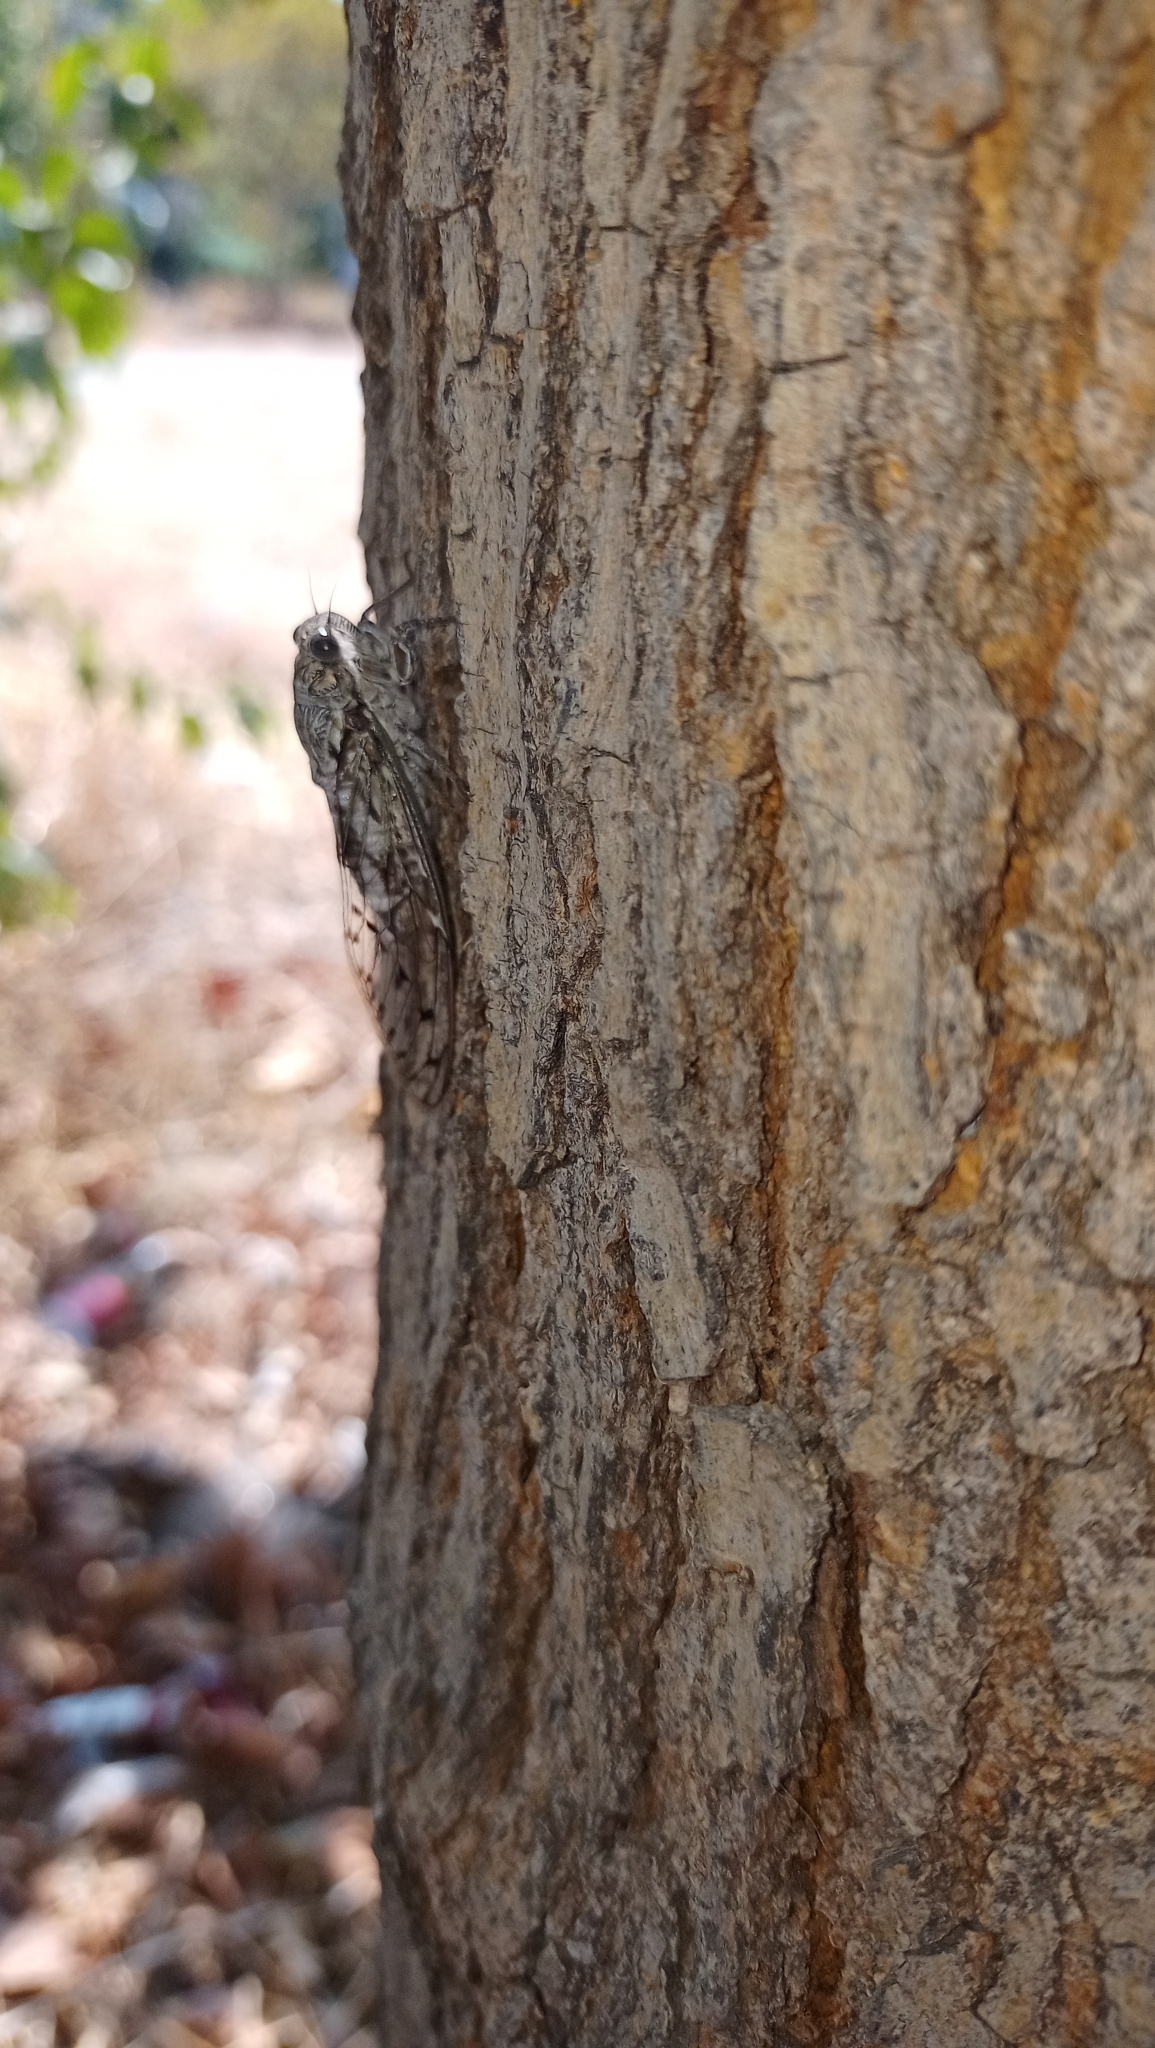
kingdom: Animalia
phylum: Arthropoda
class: Insecta
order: Hemiptera
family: Cicadidae
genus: Cicada
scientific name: Cicada mordoganensis
